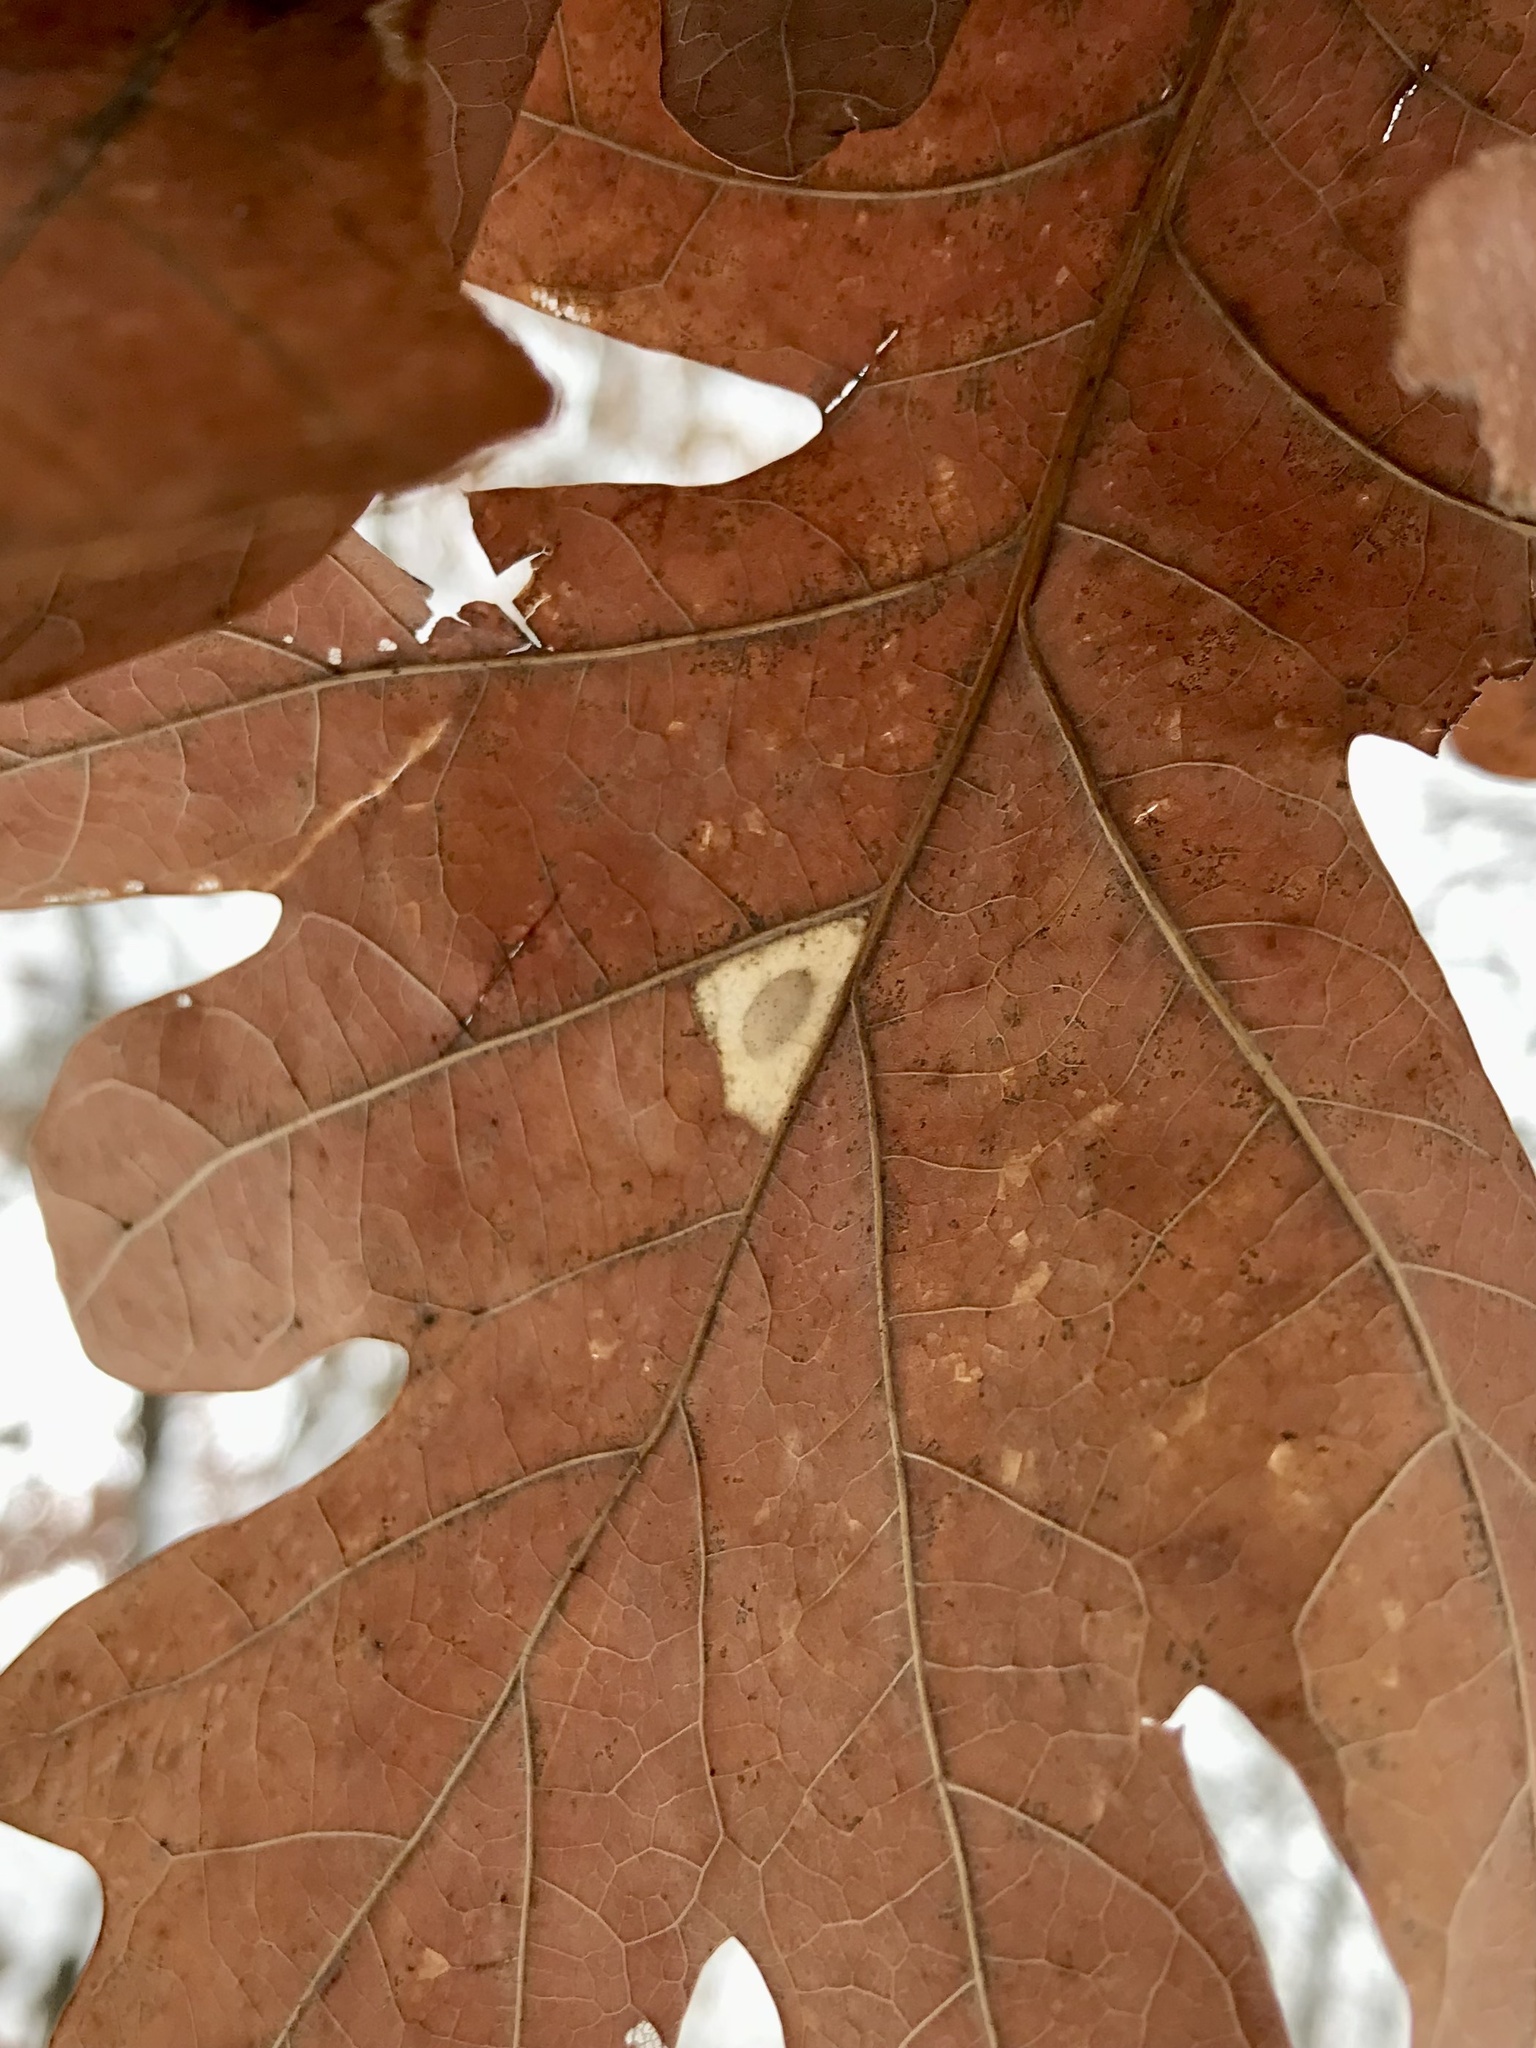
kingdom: Animalia
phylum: Arthropoda
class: Insecta
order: Lepidoptera
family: Gracillariidae
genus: Phyllonorycter
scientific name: Phyllonorycter basistrigella
